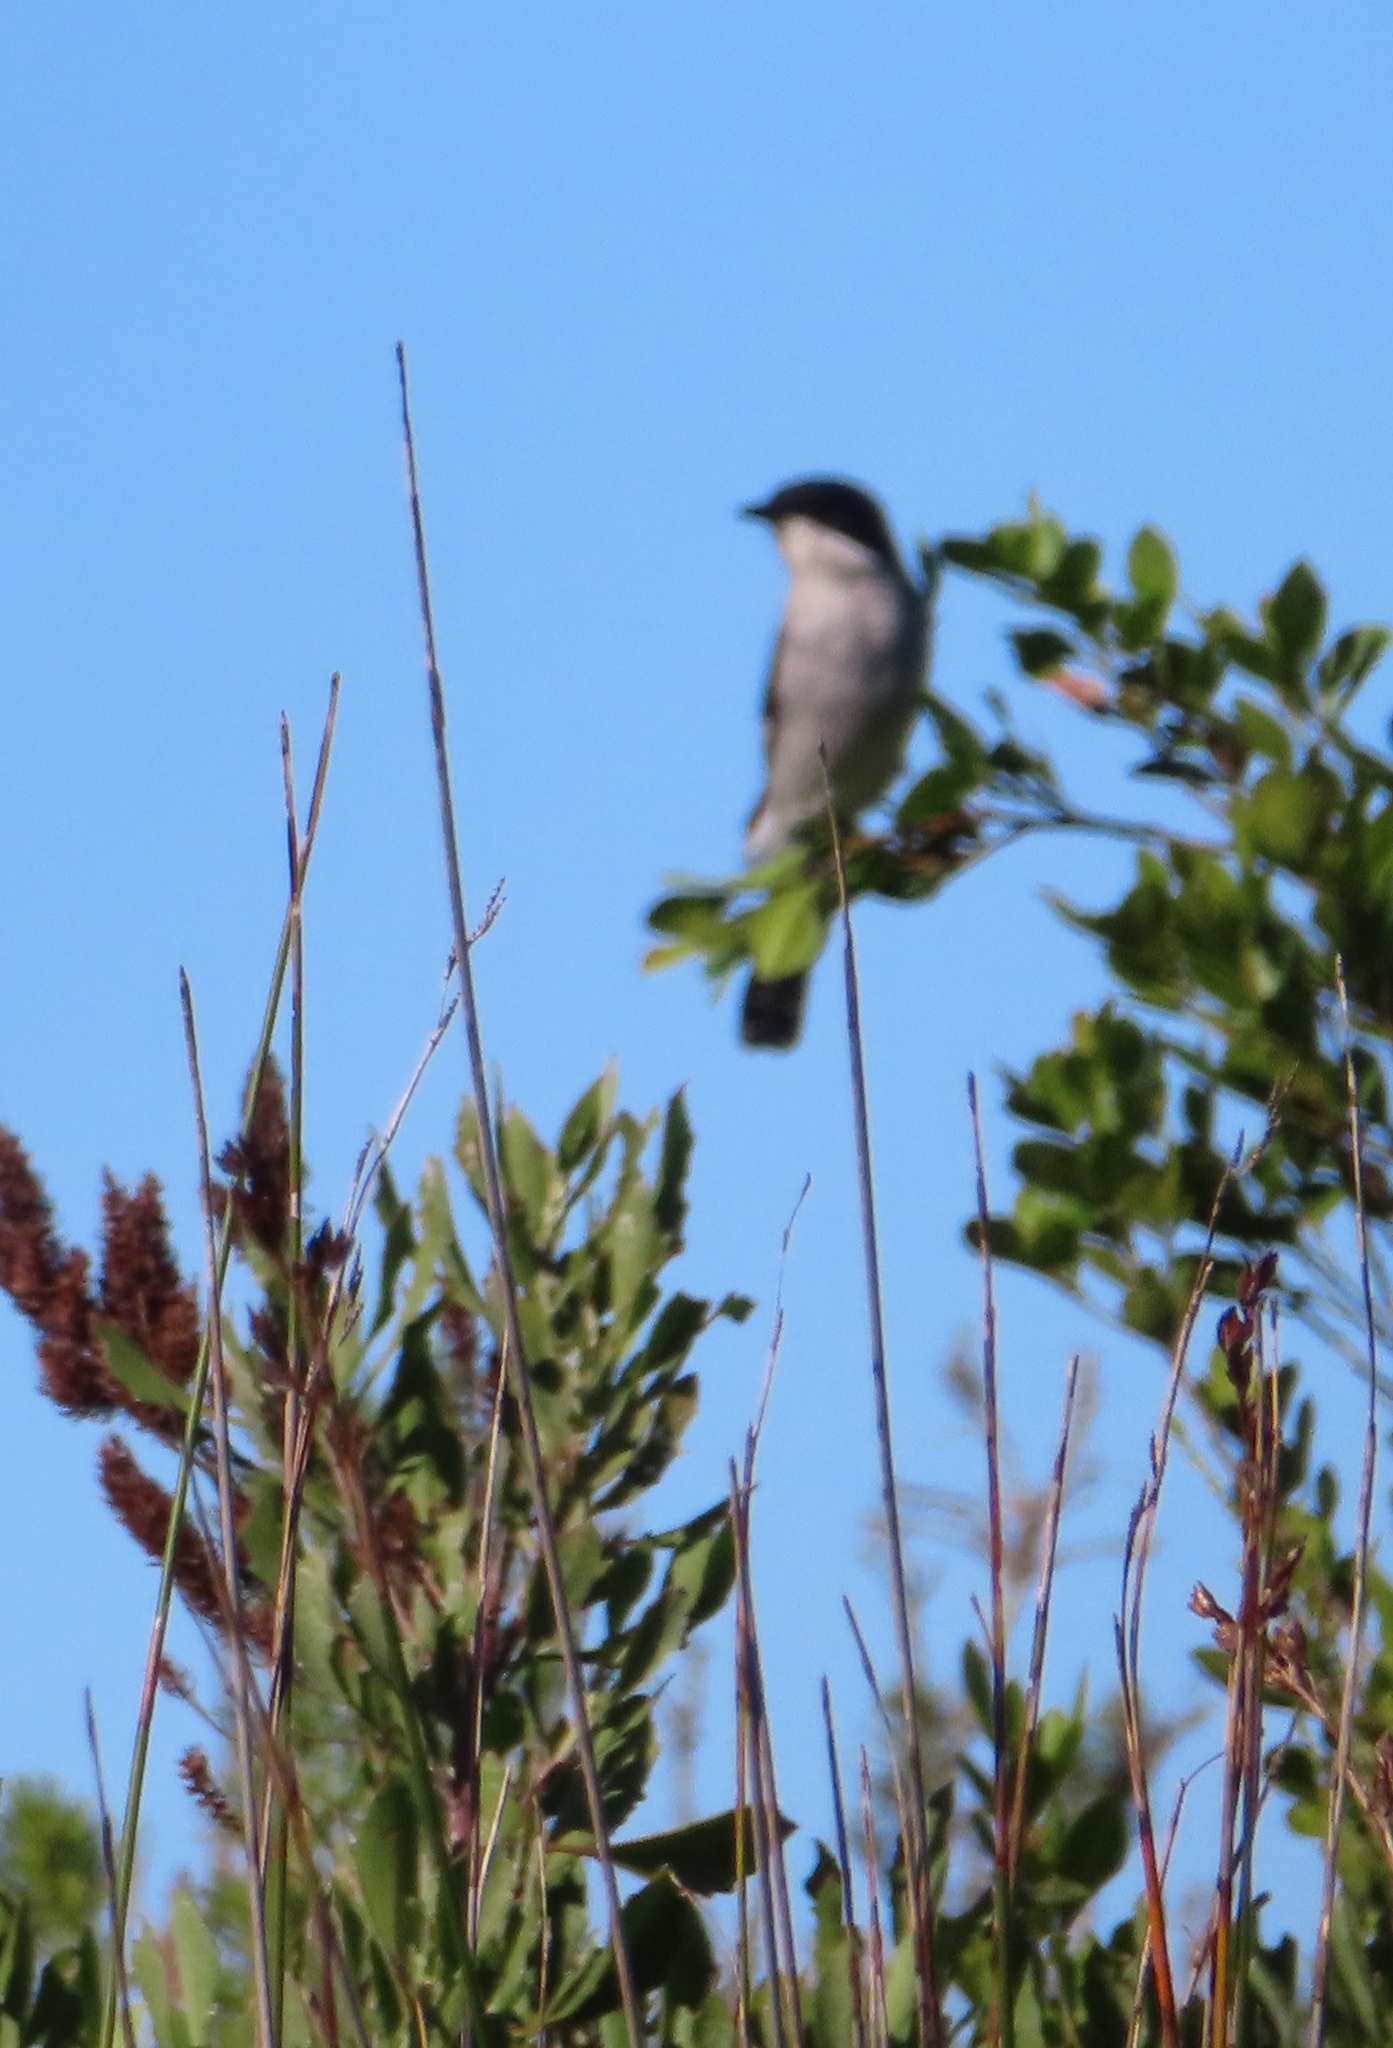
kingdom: Animalia
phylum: Chordata
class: Aves
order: Passeriformes
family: Muscicapidae
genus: Sigelus
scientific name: Sigelus silens
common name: Fiscal flycatcher
